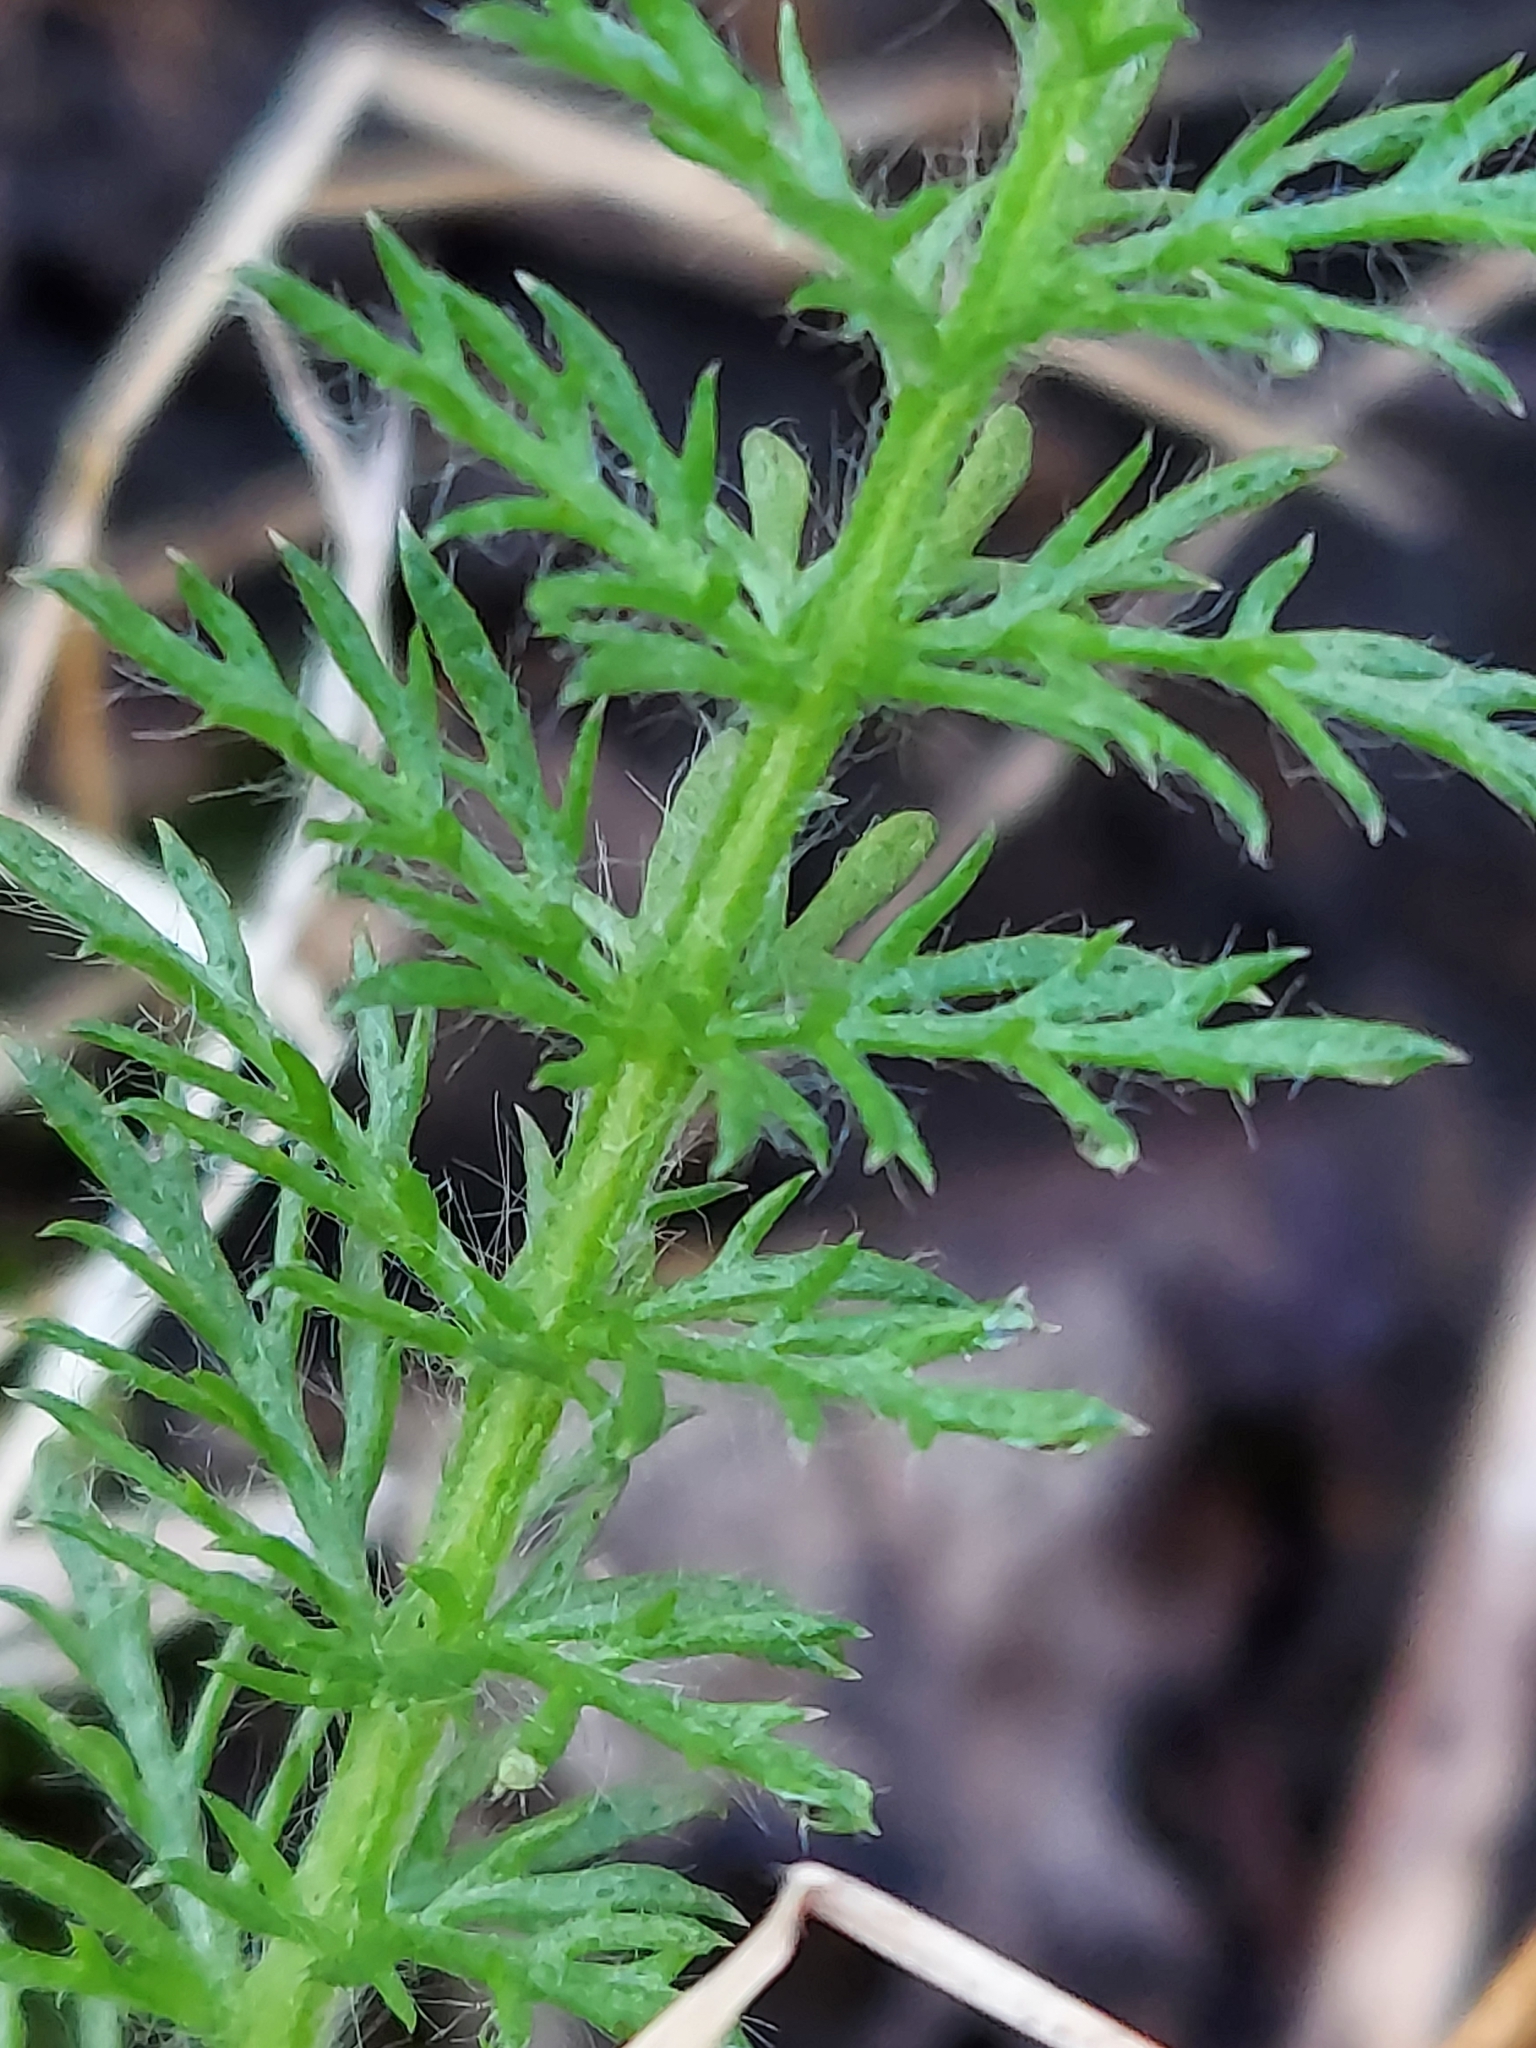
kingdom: Plantae
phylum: Tracheophyta
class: Magnoliopsida
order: Asterales
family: Asteraceae
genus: Achillea
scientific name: Achillea millefolium
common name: Yarrow
